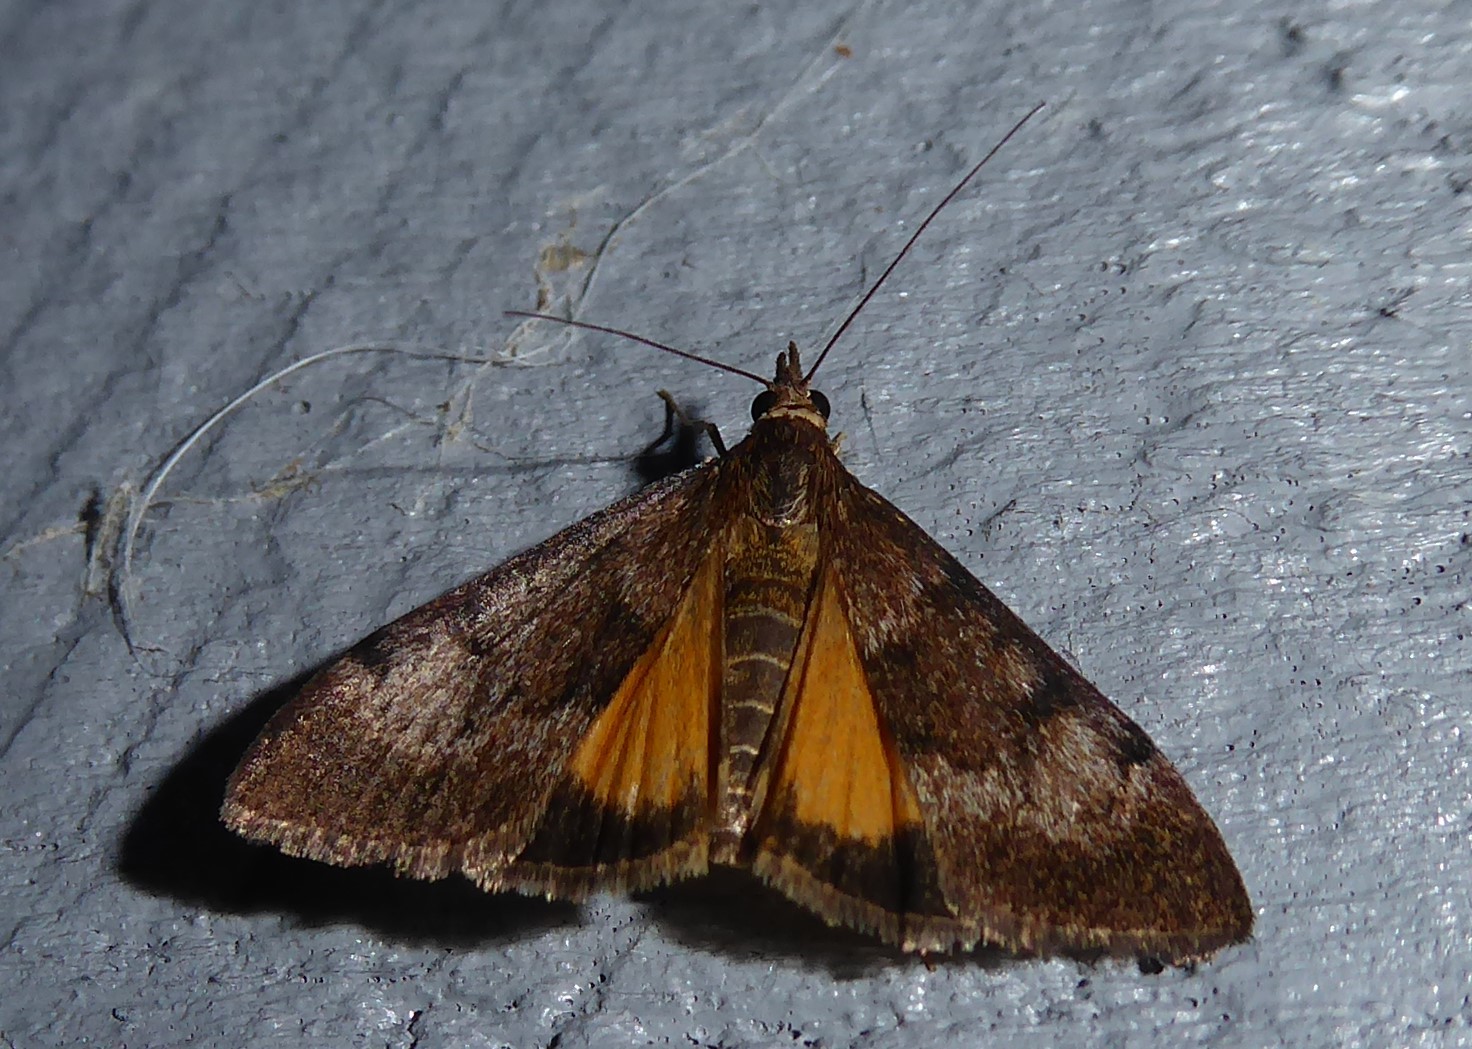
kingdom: Animalia
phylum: Arthropoda
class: Insecta
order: Lepidoptera
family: Crambidae
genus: Uresiphita
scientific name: Uresiphita
